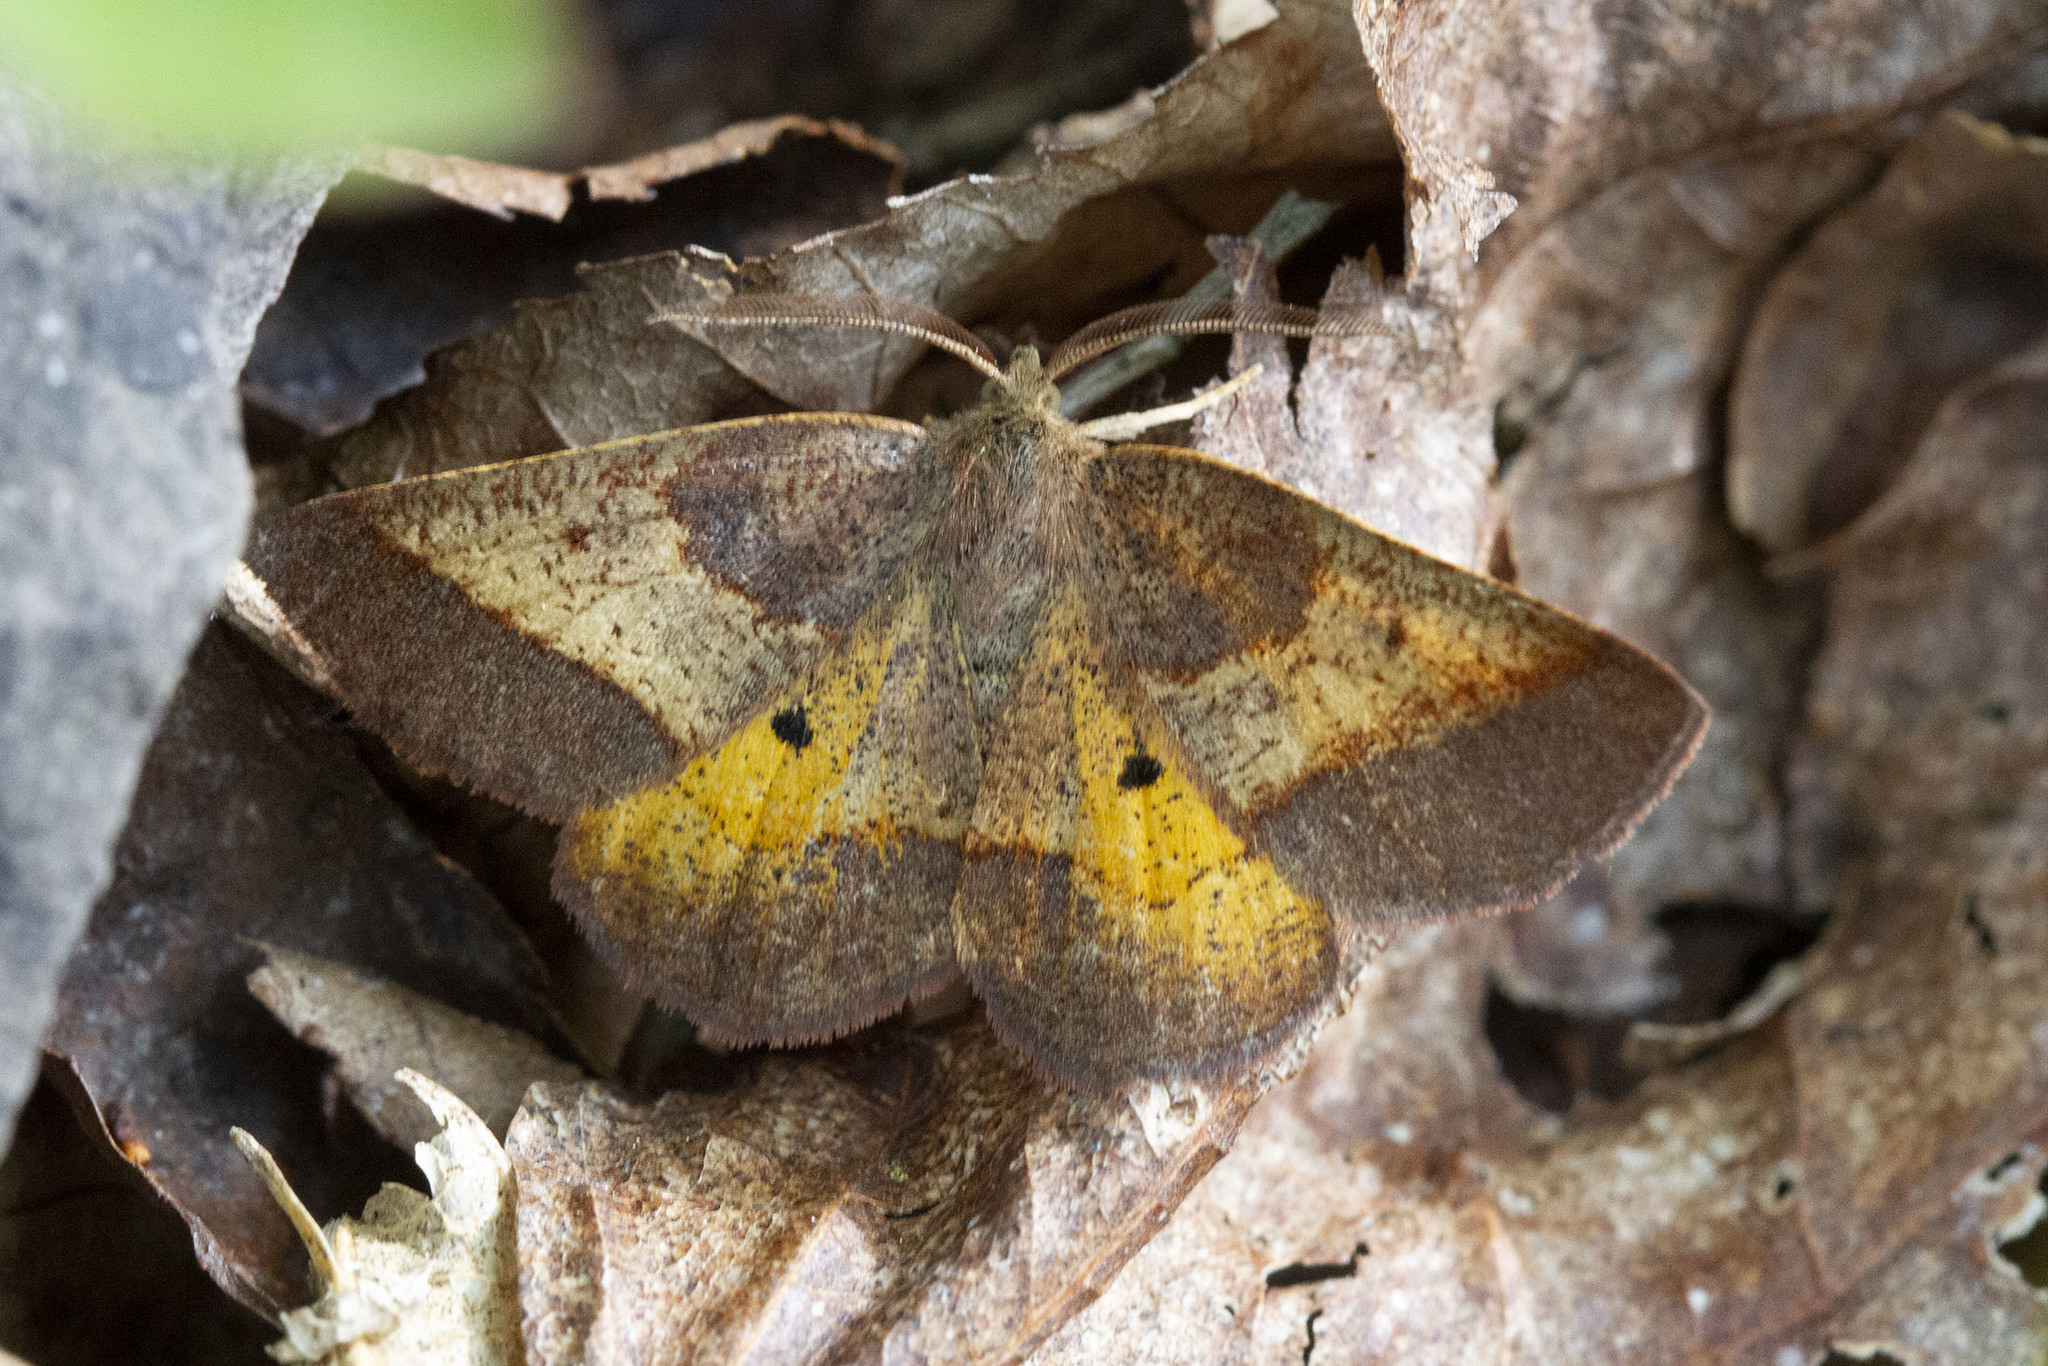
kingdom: Animalia
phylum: Arthropoda
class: Insecta
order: Lepidoptera
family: Geometridae
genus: Metarranthis
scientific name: Metarranthis obfirmaria
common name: Yellow-washed metarranthis
